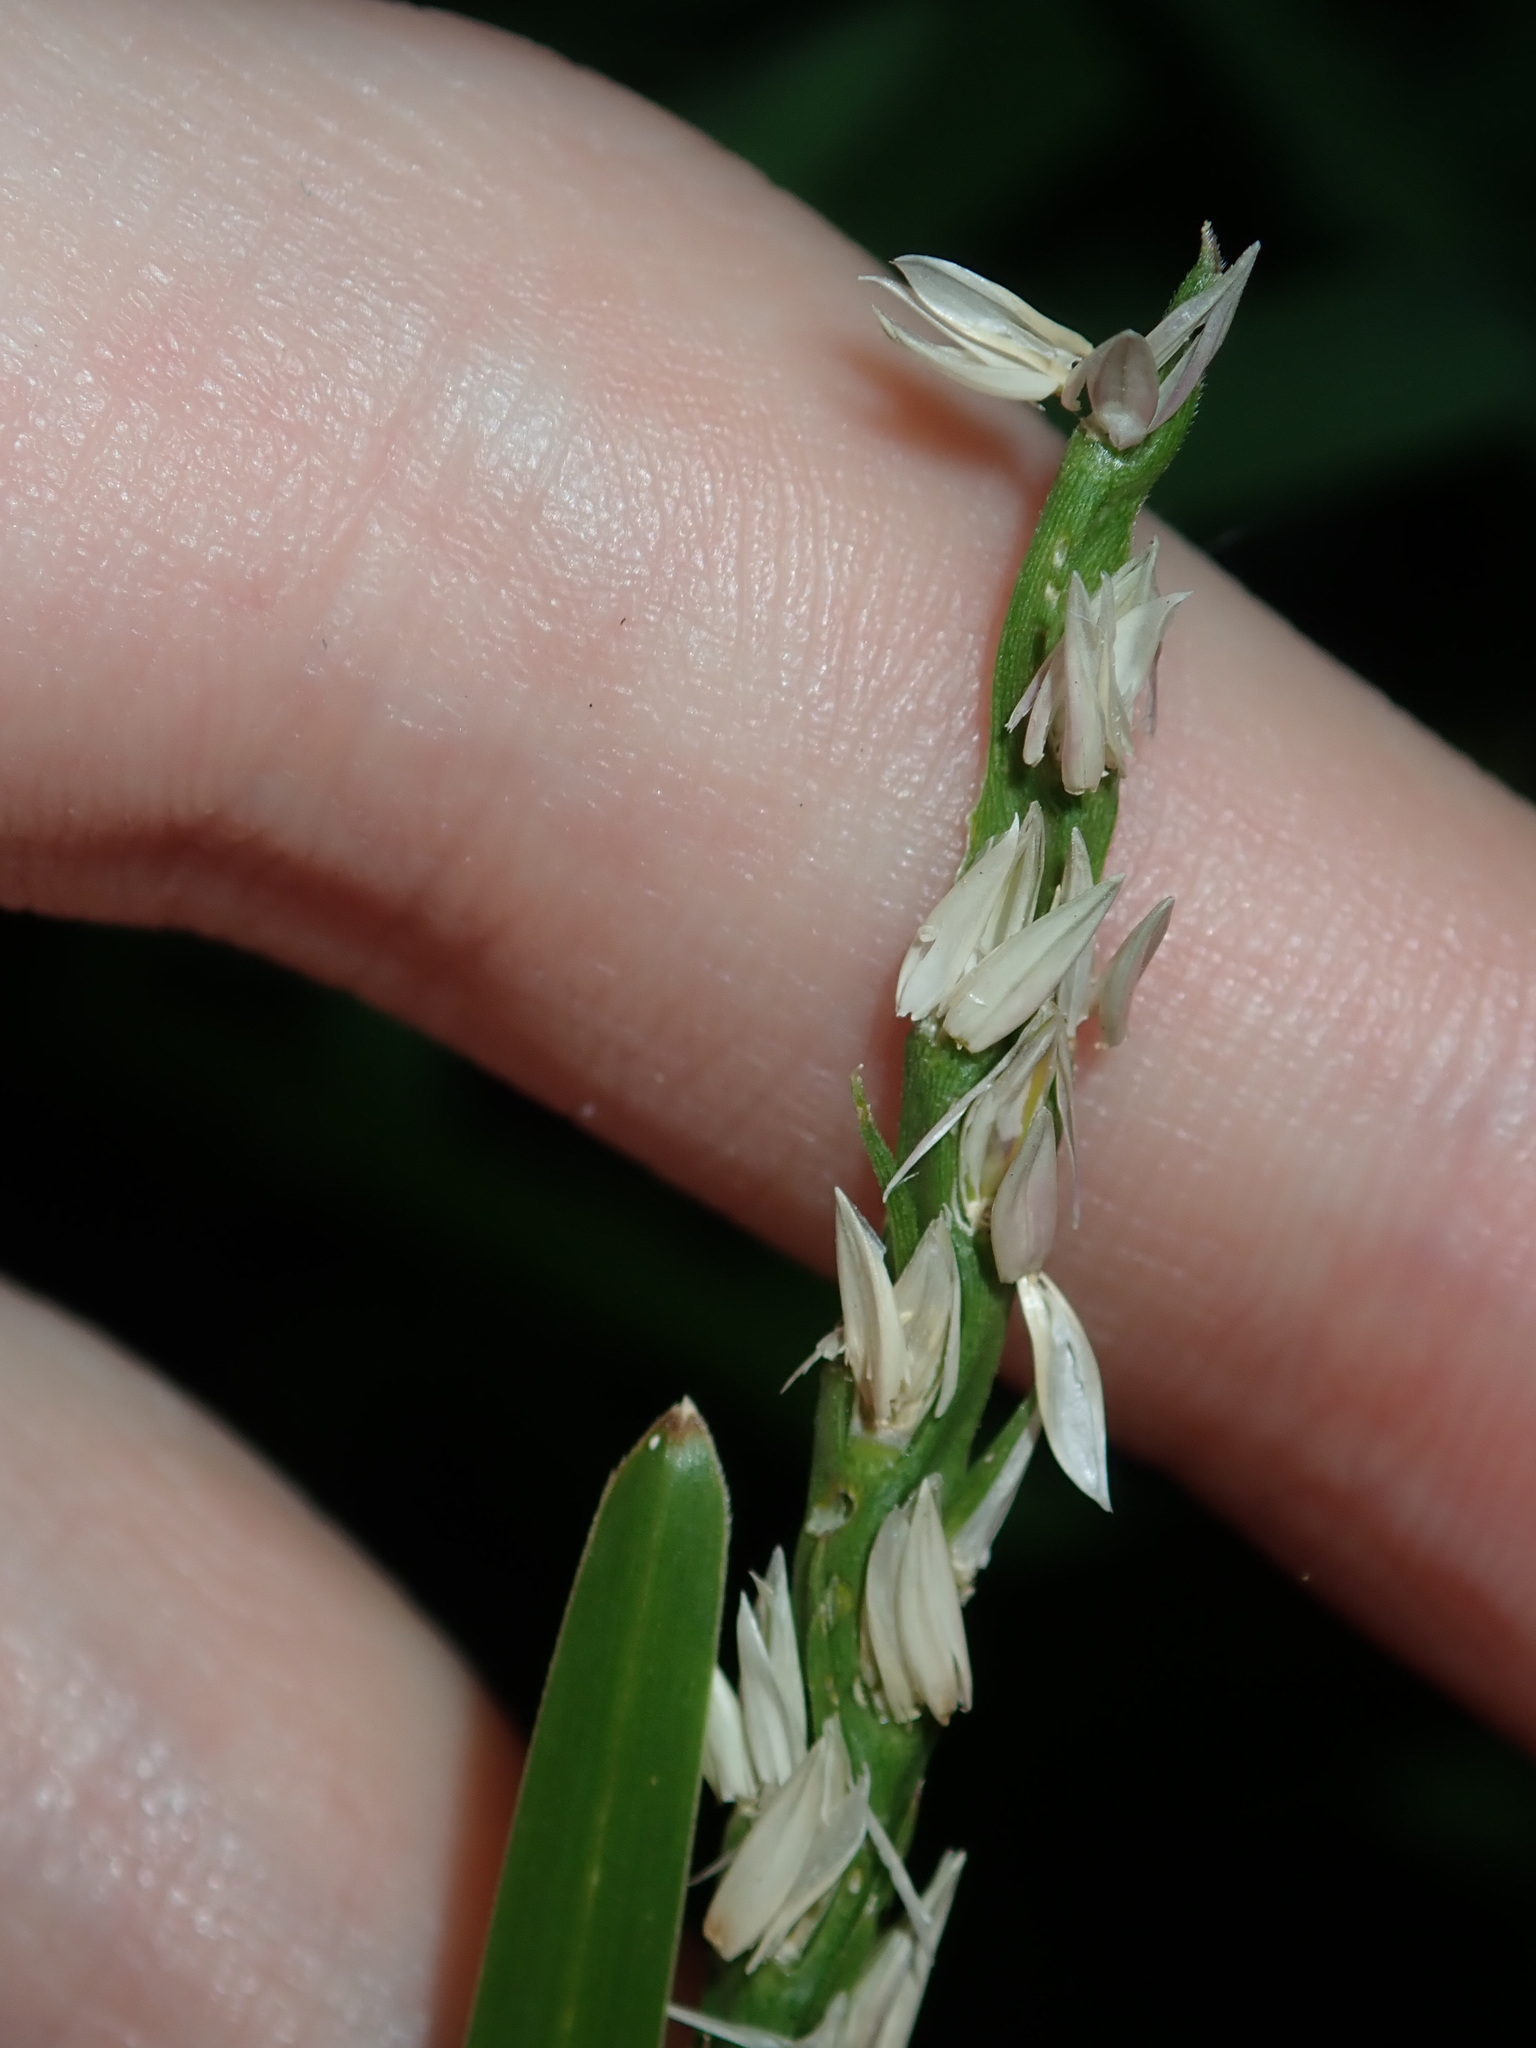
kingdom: Plantae
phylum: Tracheophyta
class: Liliopsida
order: Poales
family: Poaceae
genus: Stenotaphrum
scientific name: Stenotaphrum secundatum
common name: St. augustine grass
